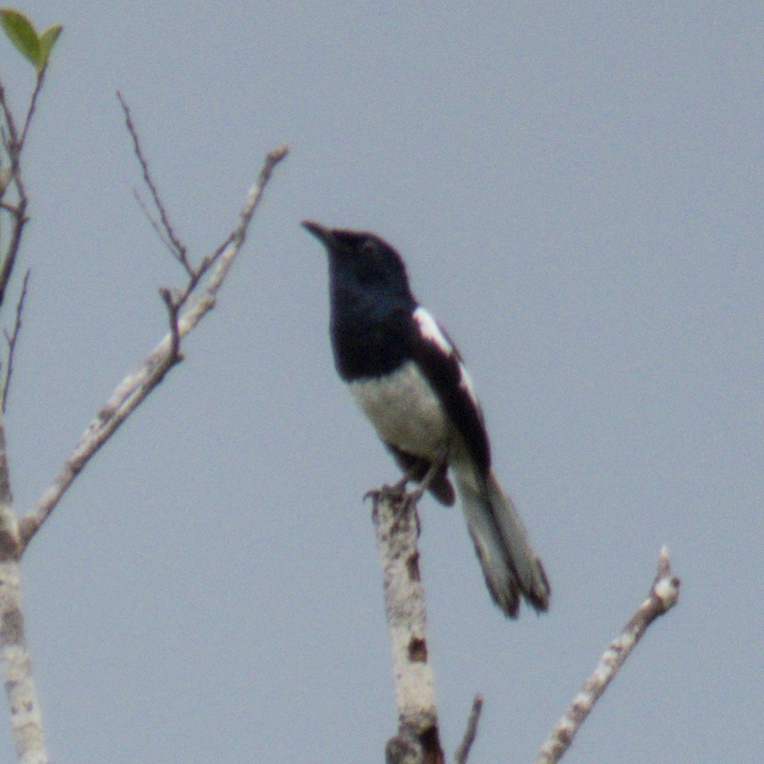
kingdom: Animalia
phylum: Chordata
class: Aves
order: Passeriformes
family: Muscicapidae
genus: Copsychus
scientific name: Copsychus saularis
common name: Oriental magpie-robin
